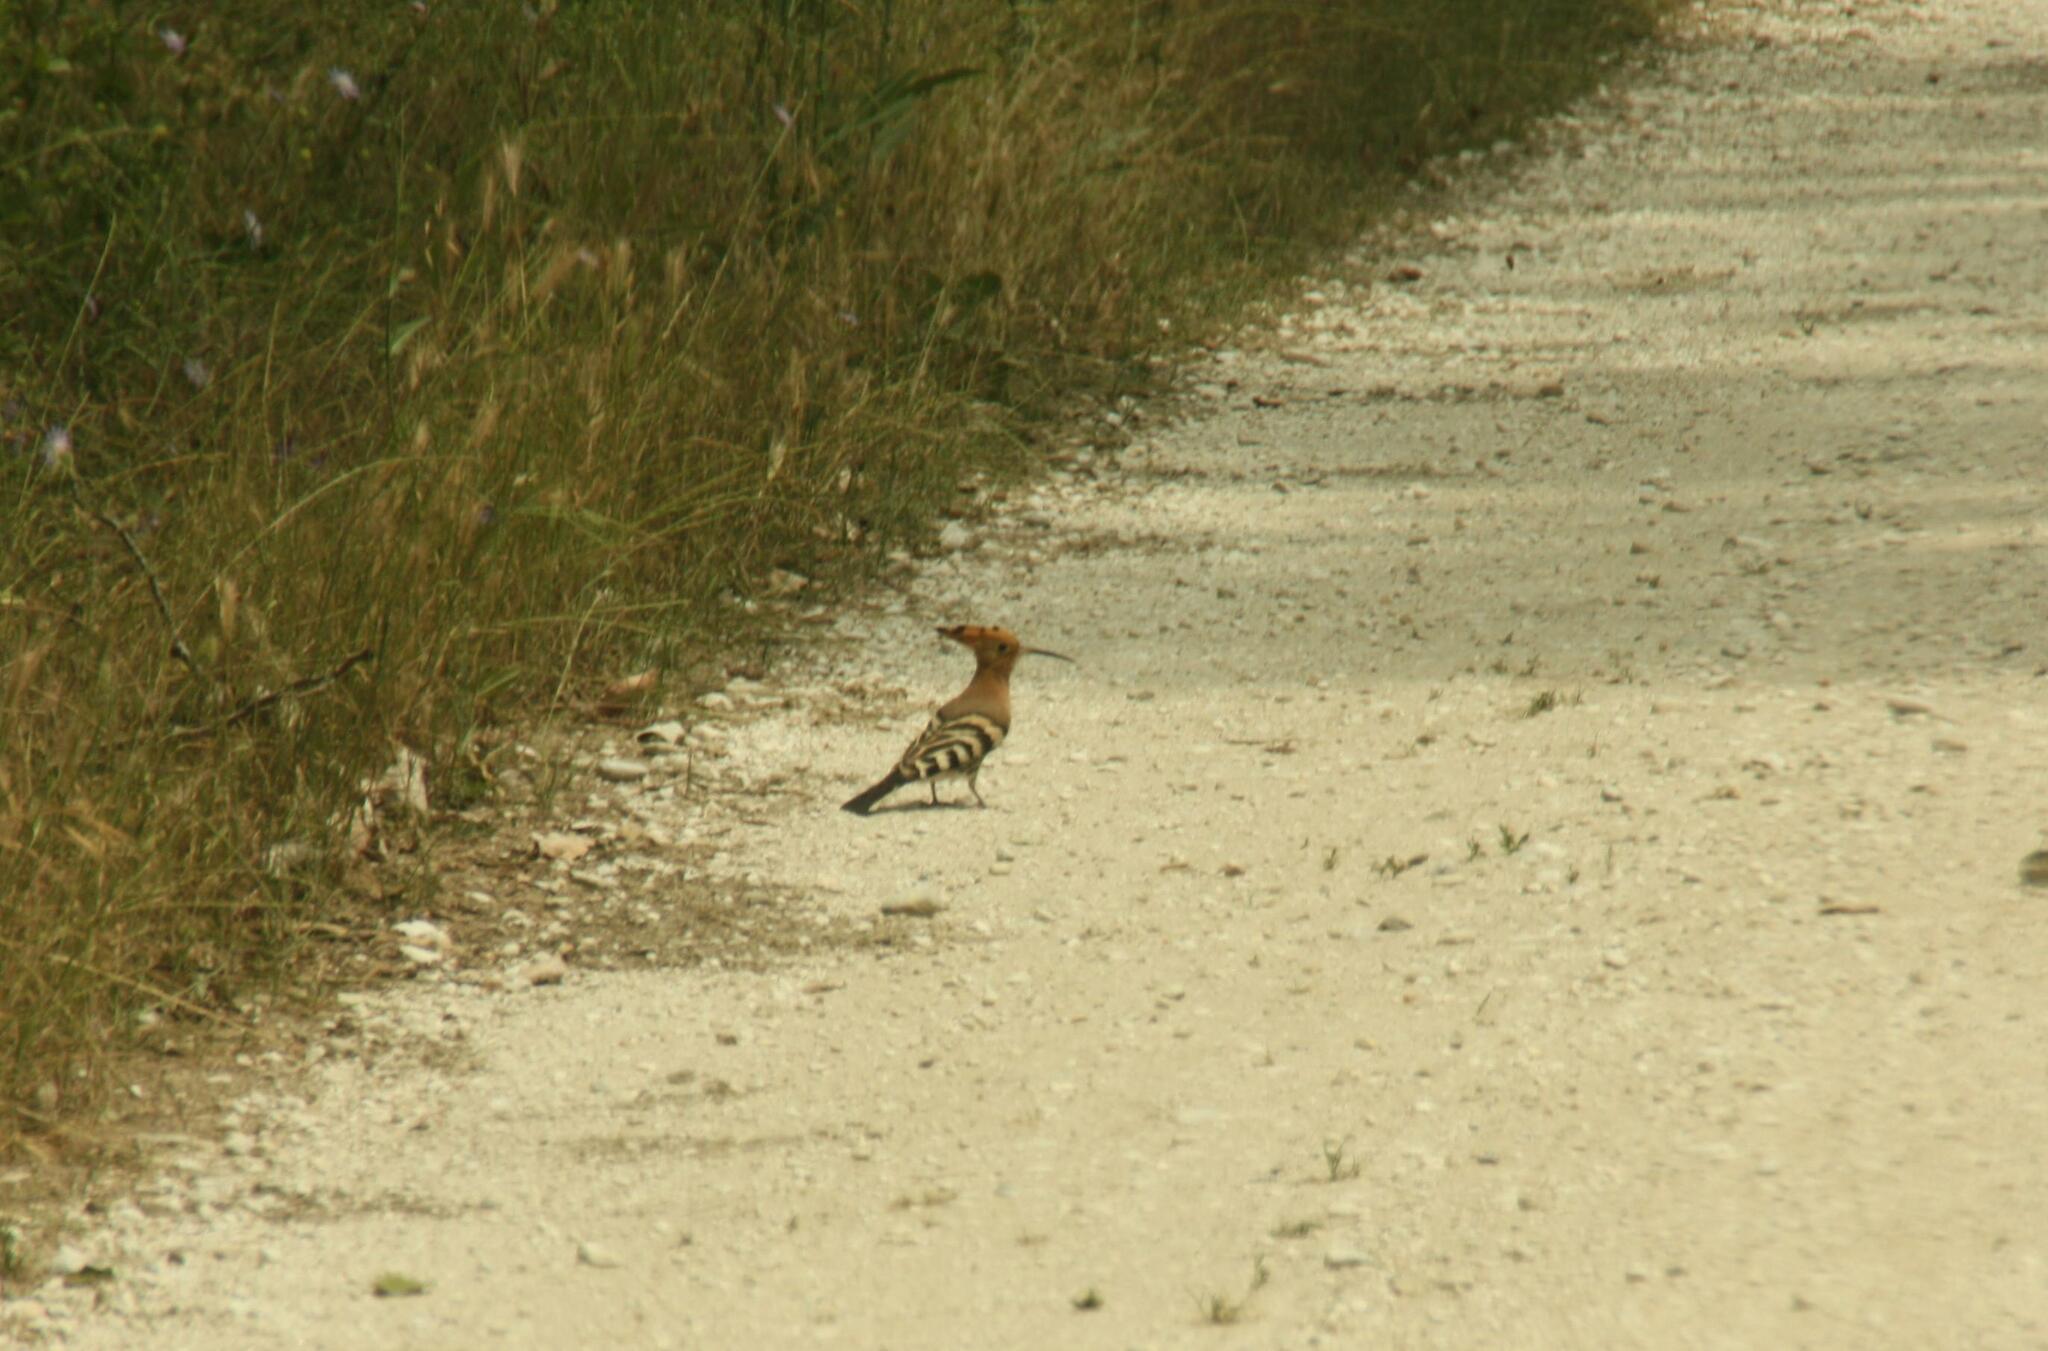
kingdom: Animalia
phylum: Chordata
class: Aves
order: Bucerotiformes
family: Upupidae
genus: Upupa
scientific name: Upupa epops
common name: Eurasian hoopoe
